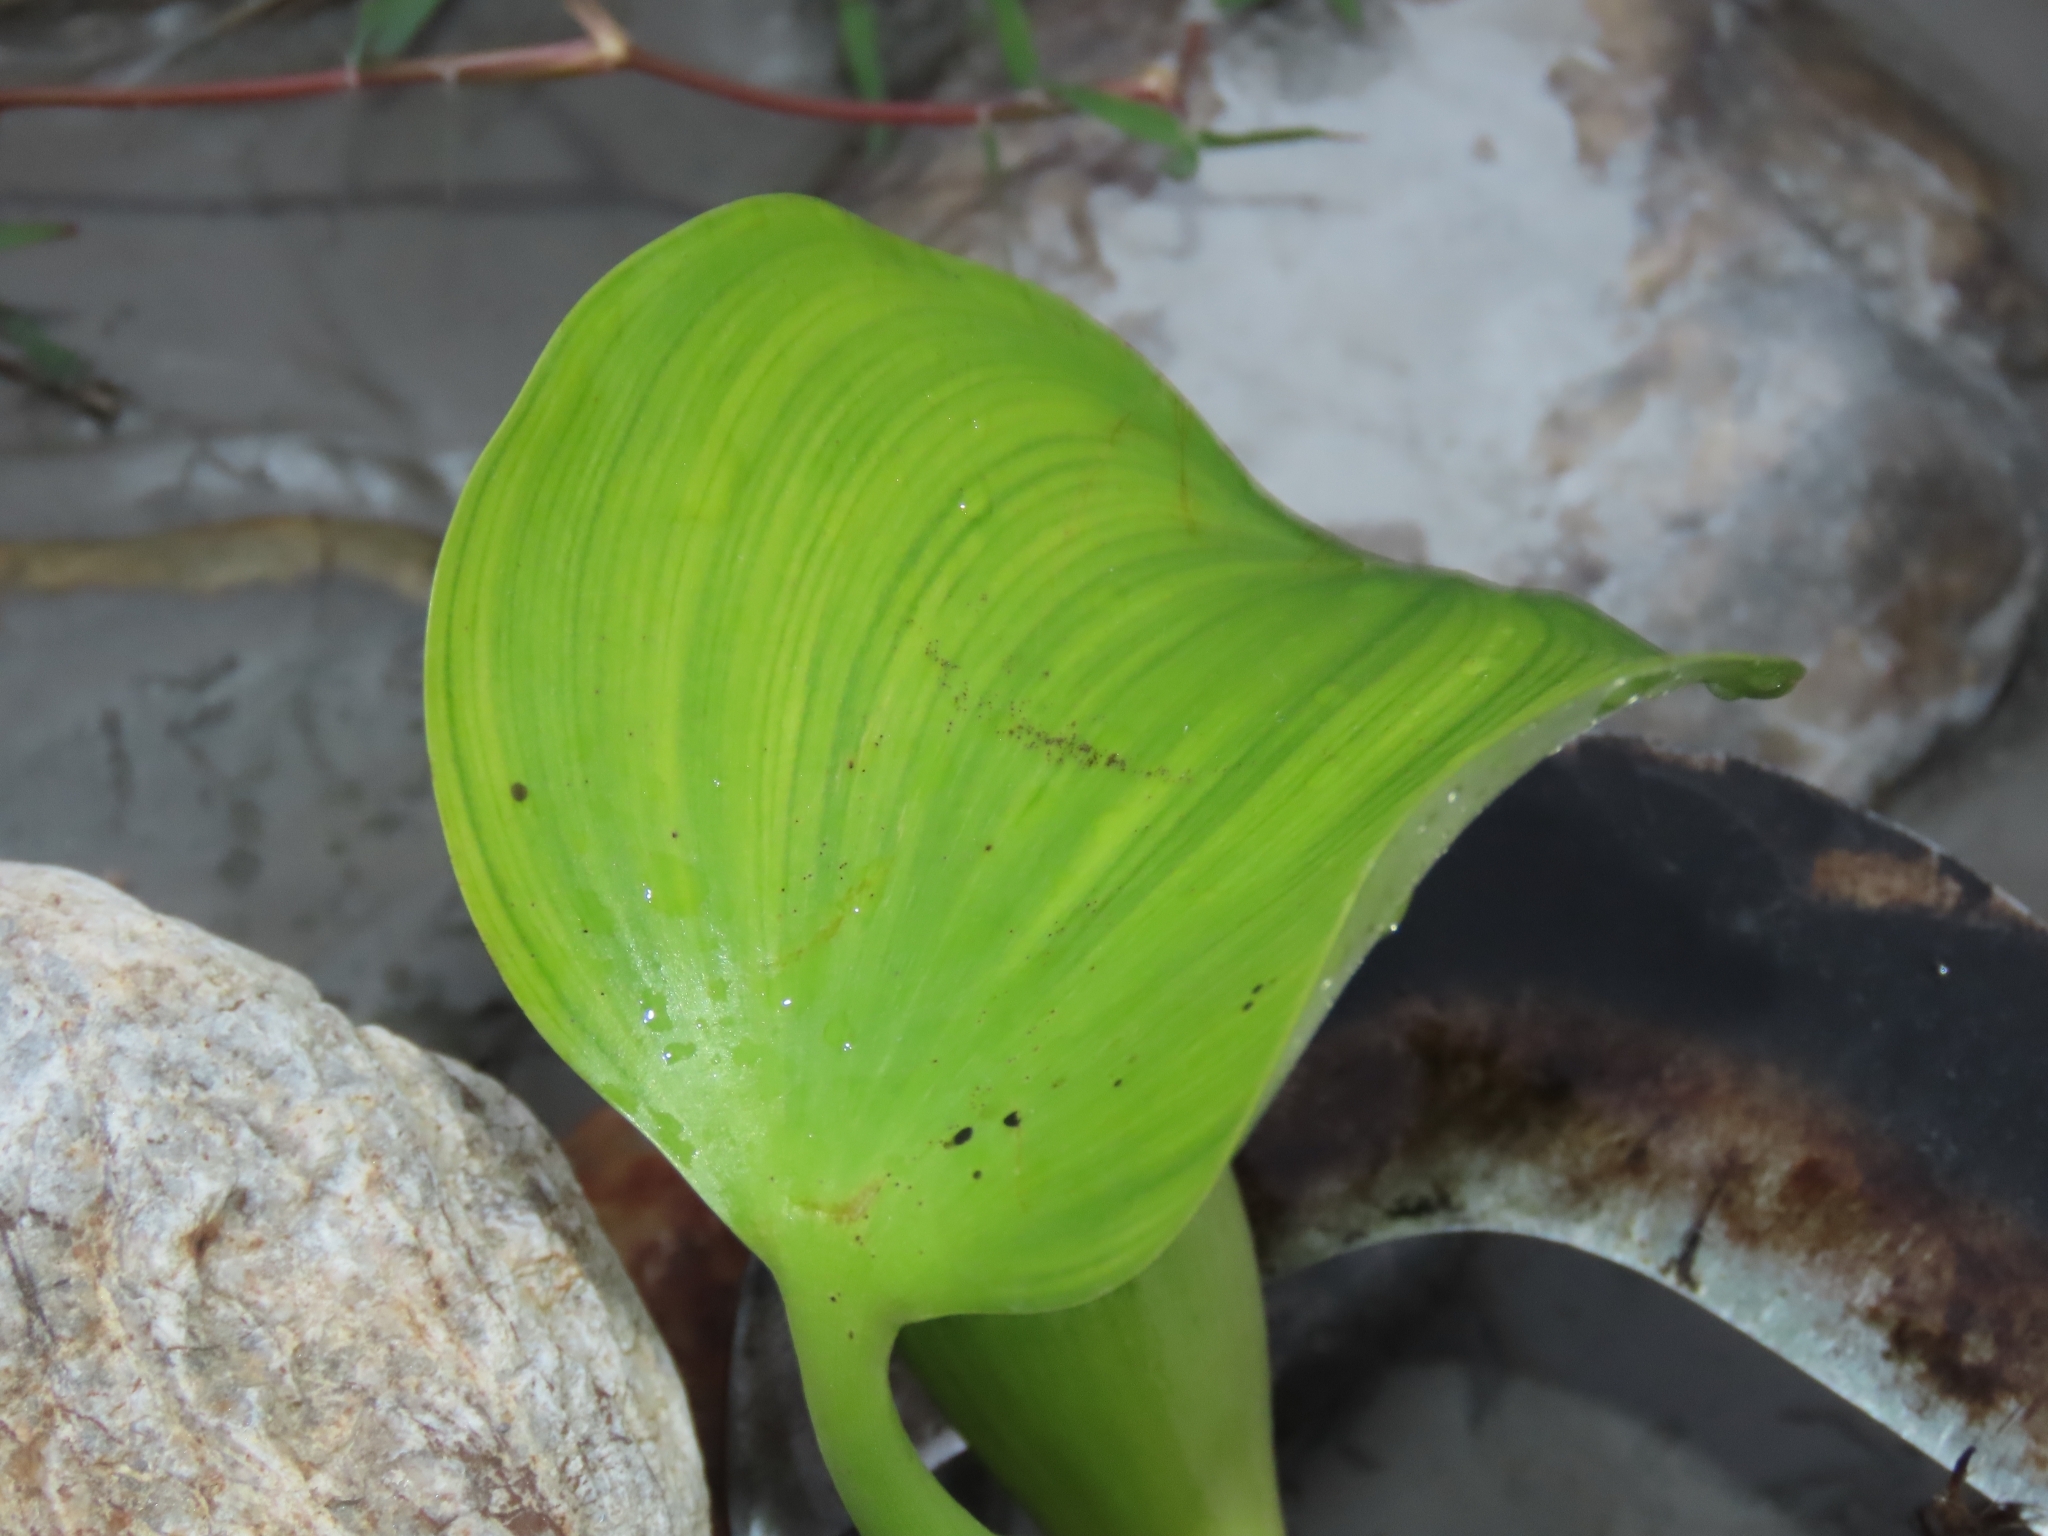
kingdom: Plantae
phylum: Tracheophyta
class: Liliopsida
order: Commelinales
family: Pontederiaceae
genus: Pontederia
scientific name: Pontederia crassipes
